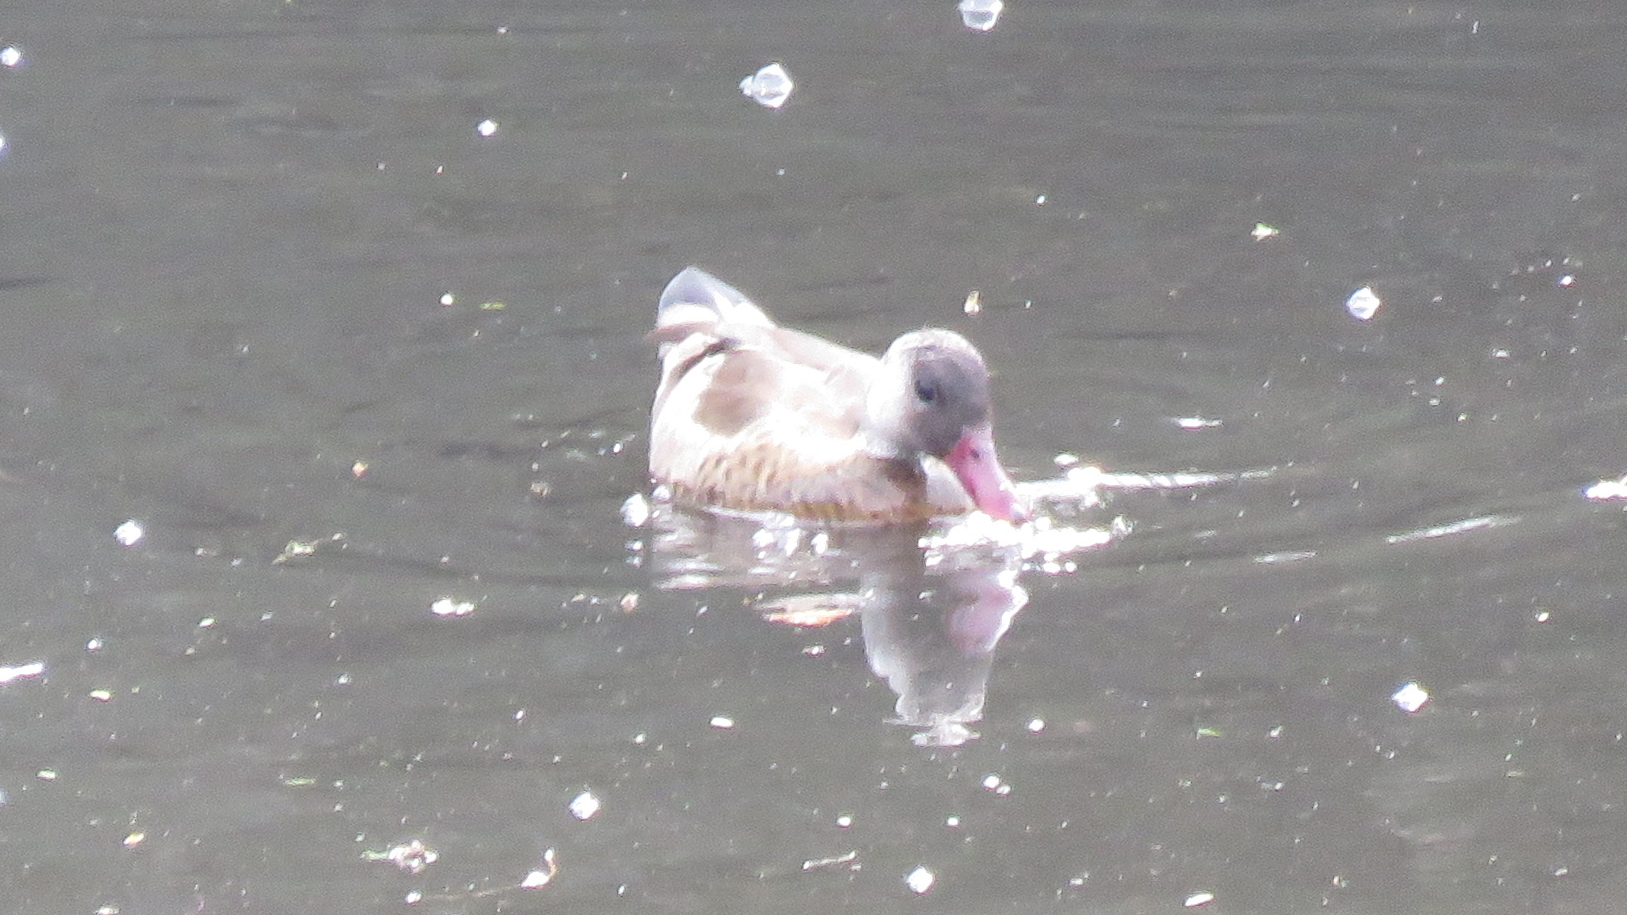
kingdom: Animalia
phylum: Chordata
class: Aves
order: Anseriformes
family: Anatidae
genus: Amazonetta
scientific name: Amazonetta brasiliensis
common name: Brazilian teal
